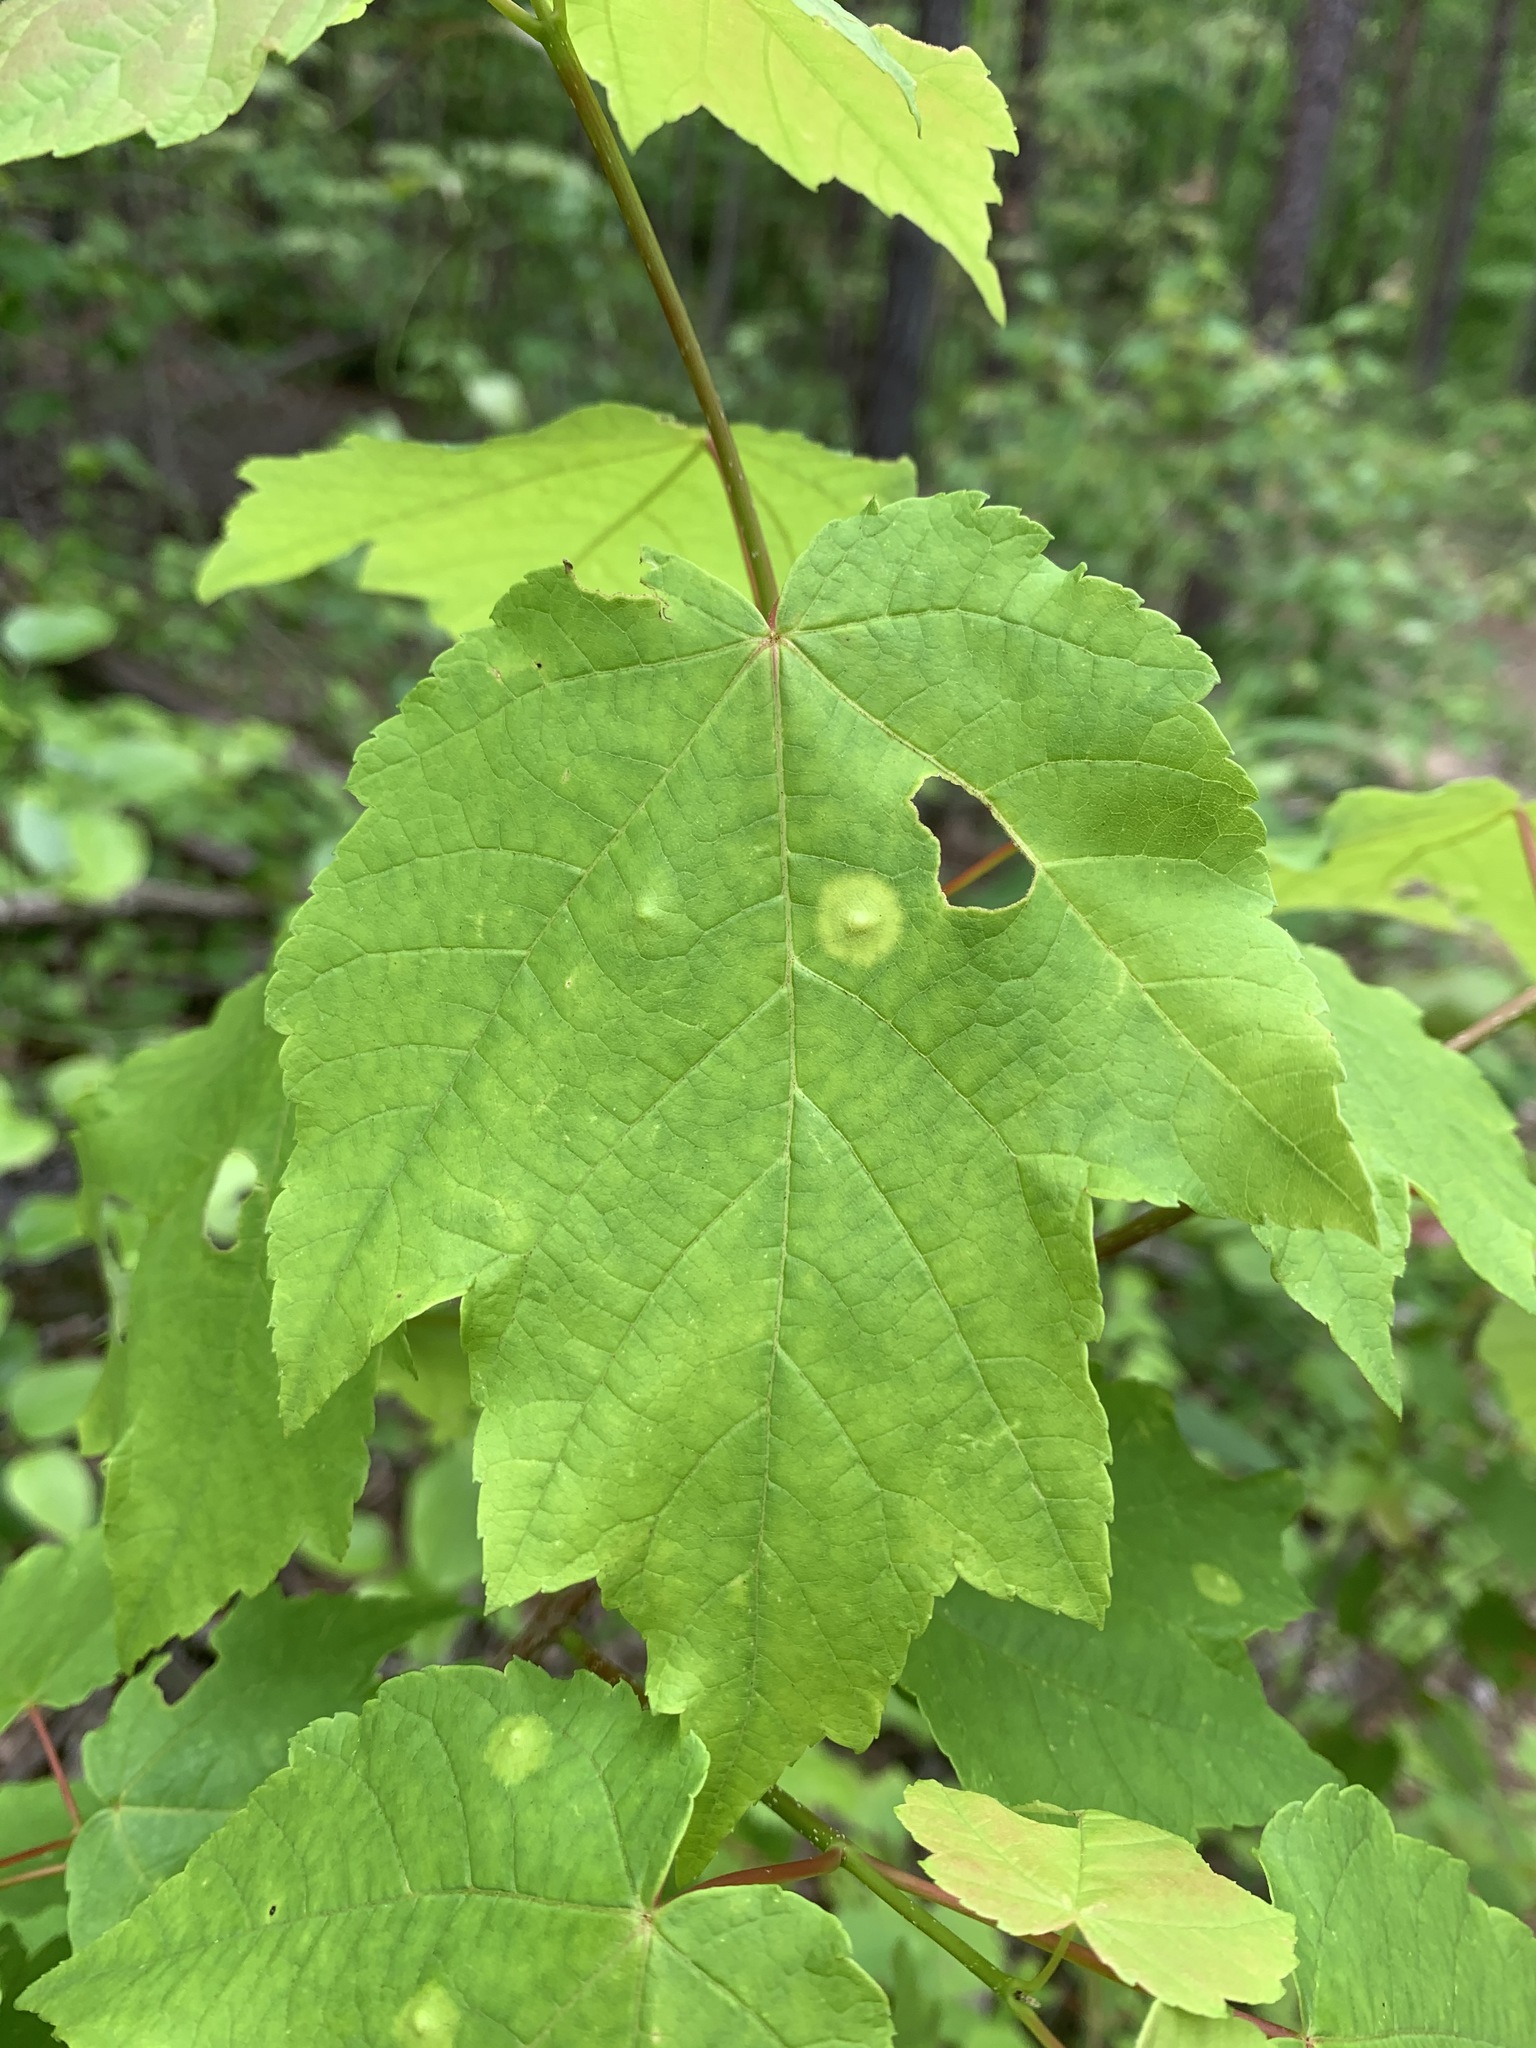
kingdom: Plantae
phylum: Tracheophyta
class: Magnoliopsida
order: Sapindales
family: Sapindaceae
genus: Acer
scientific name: Acer rubrum
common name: Red maple
